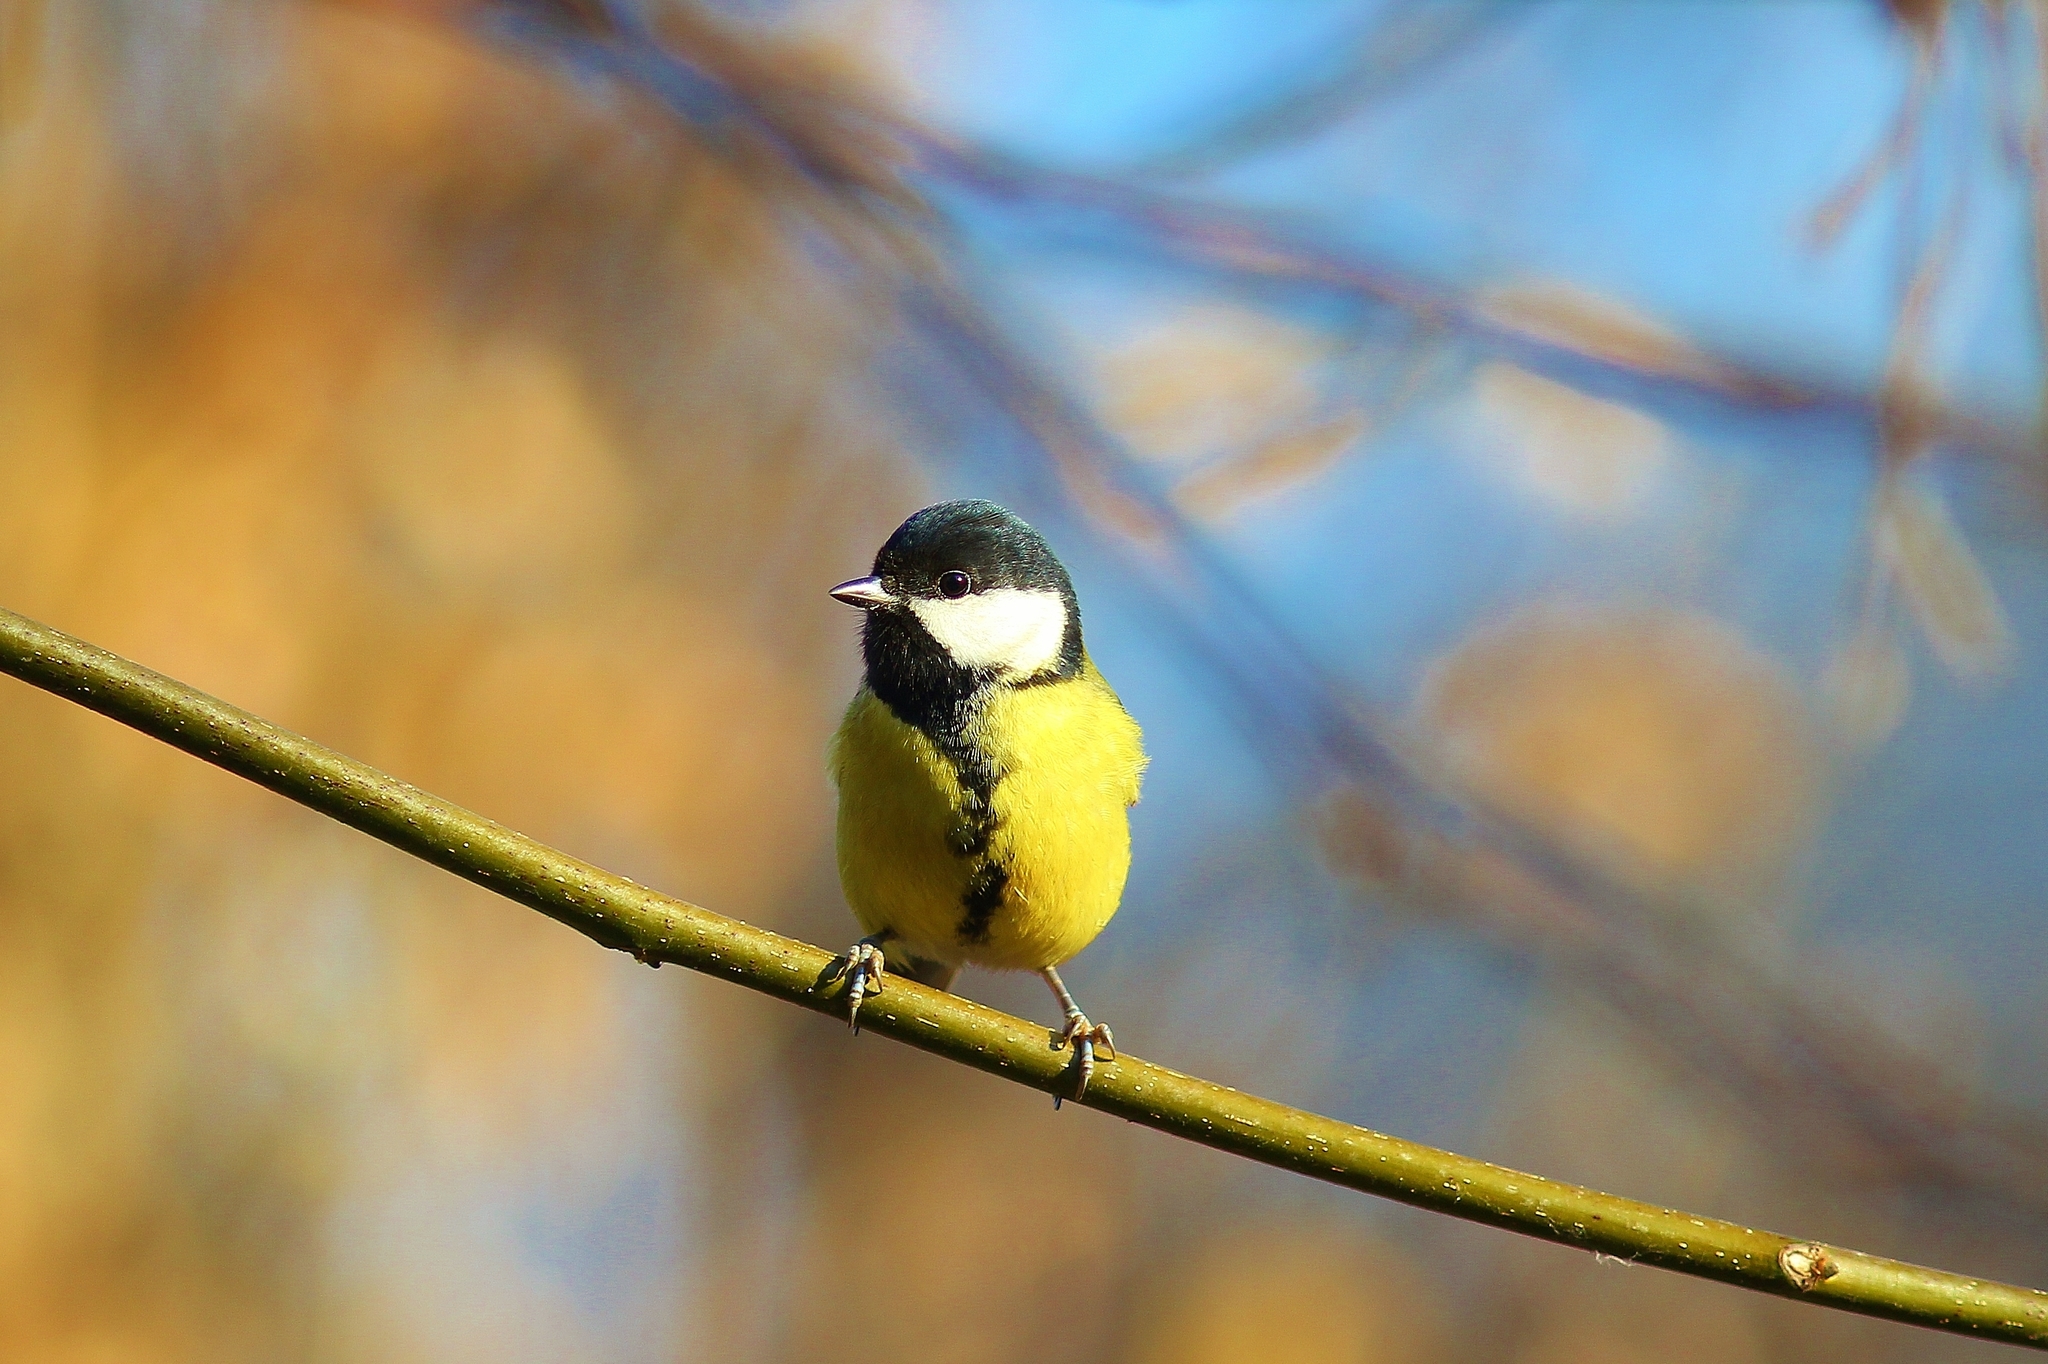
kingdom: Animalia
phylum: Chordata
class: Aves
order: Passeriformes
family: Paridae
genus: Parus
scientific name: Parus major
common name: Great tit
